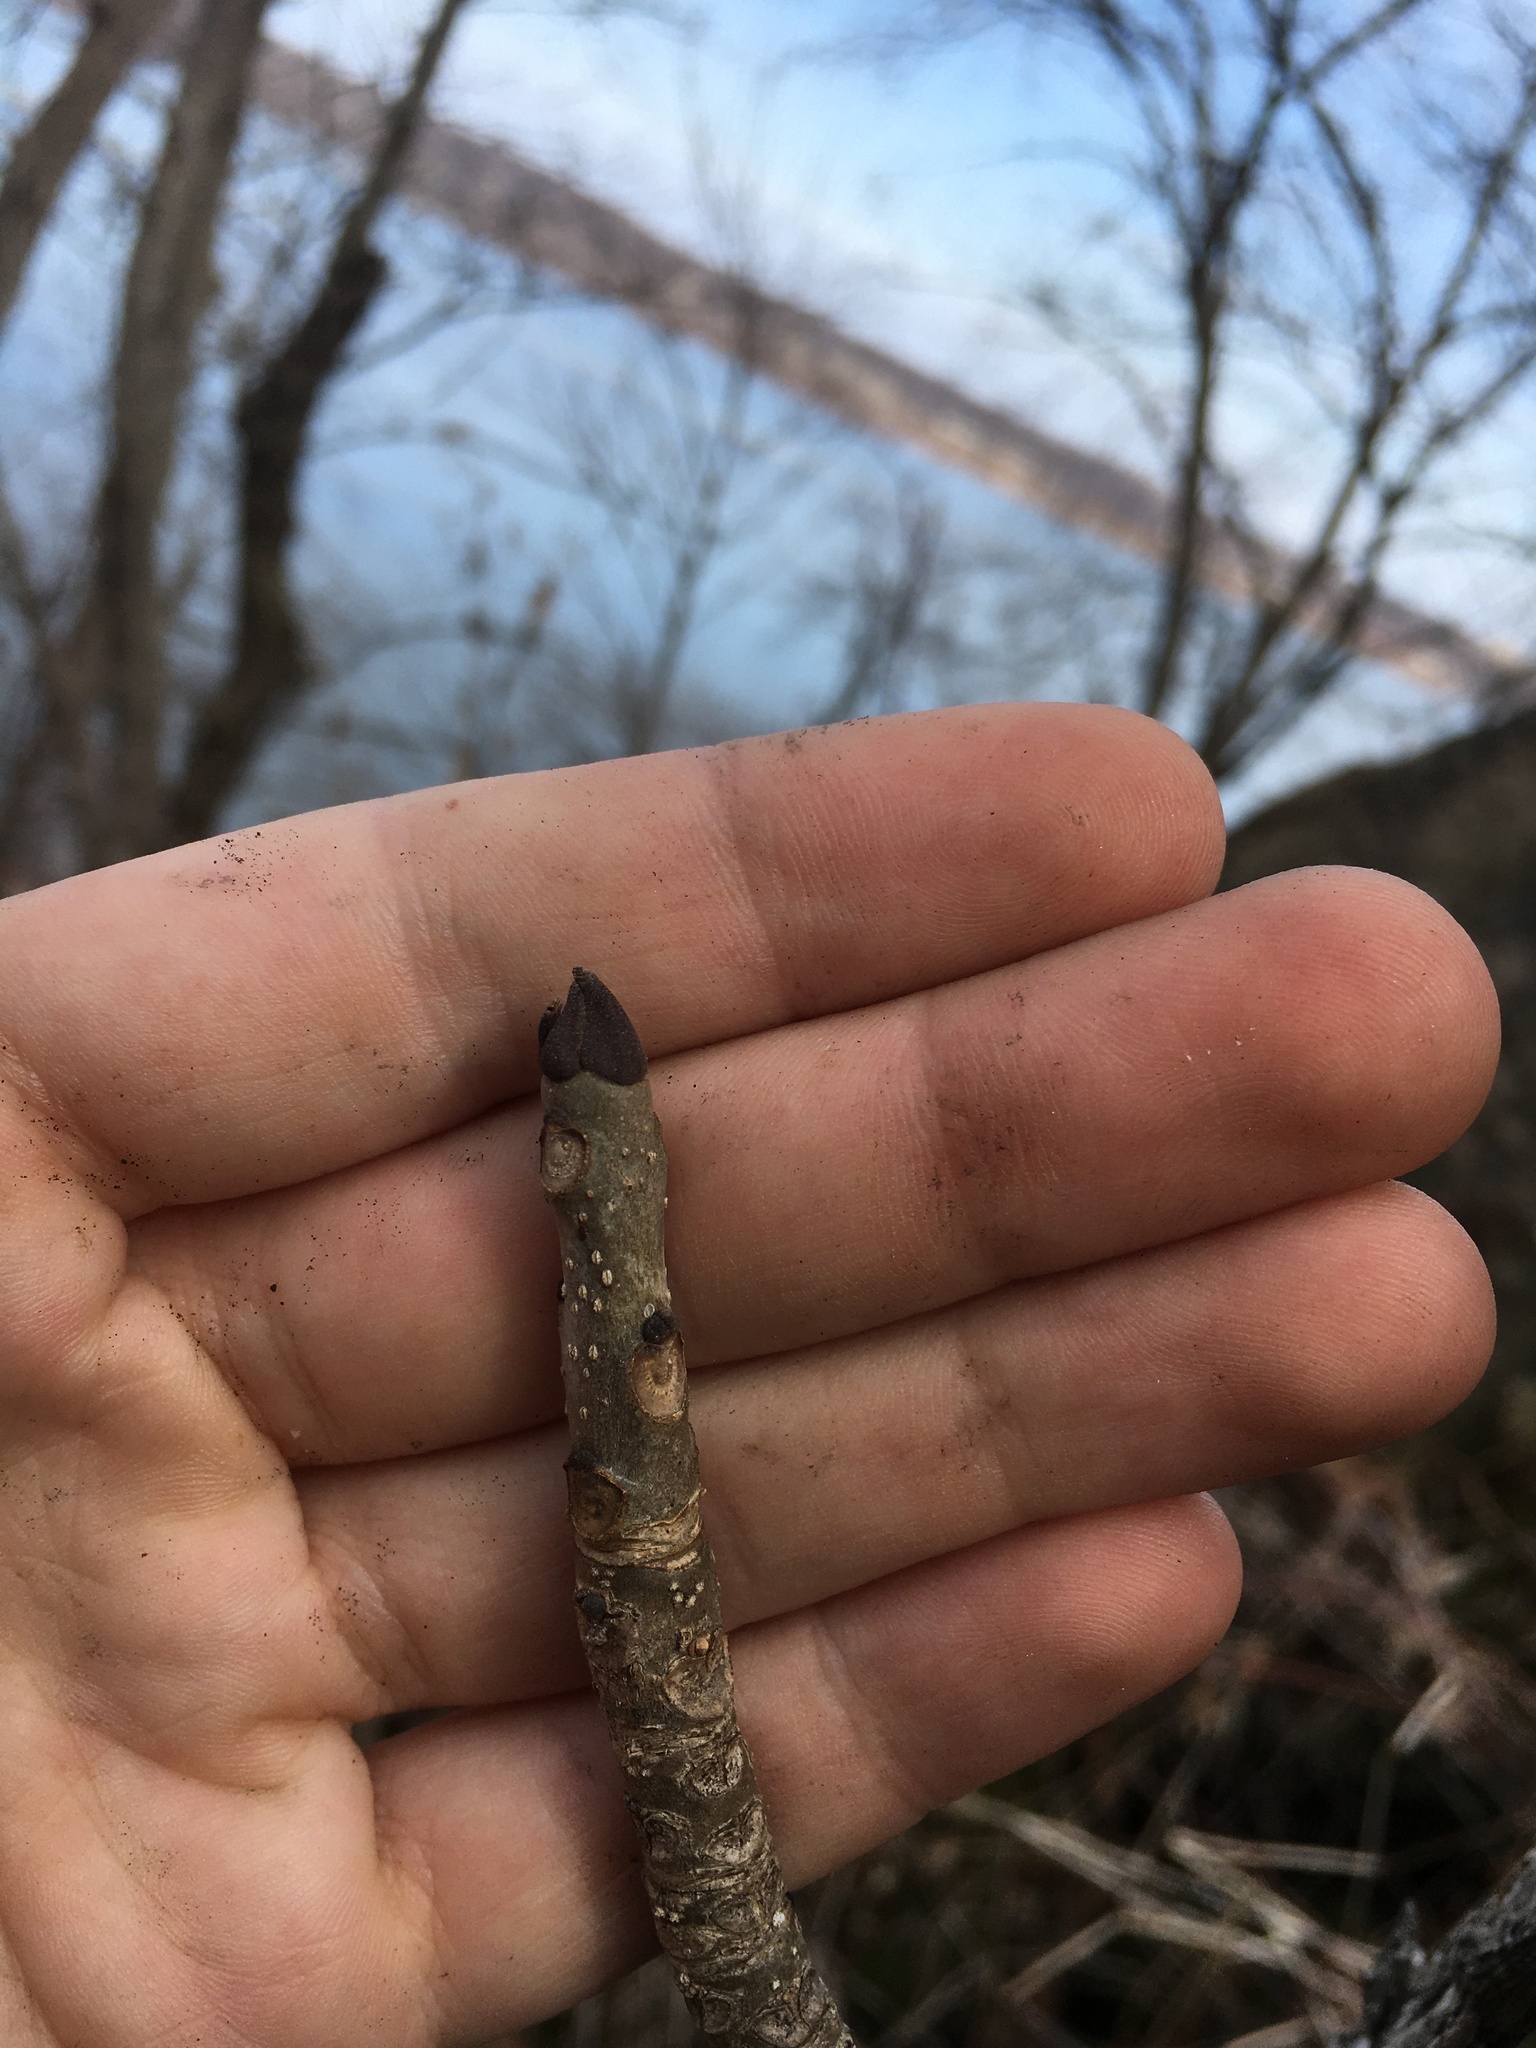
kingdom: Plantae
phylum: Tracheophyta
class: Magnoliopsida
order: Lamiales
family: Oleaceae
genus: Fraxinus
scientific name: Fraxinus nigra
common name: Black ash
